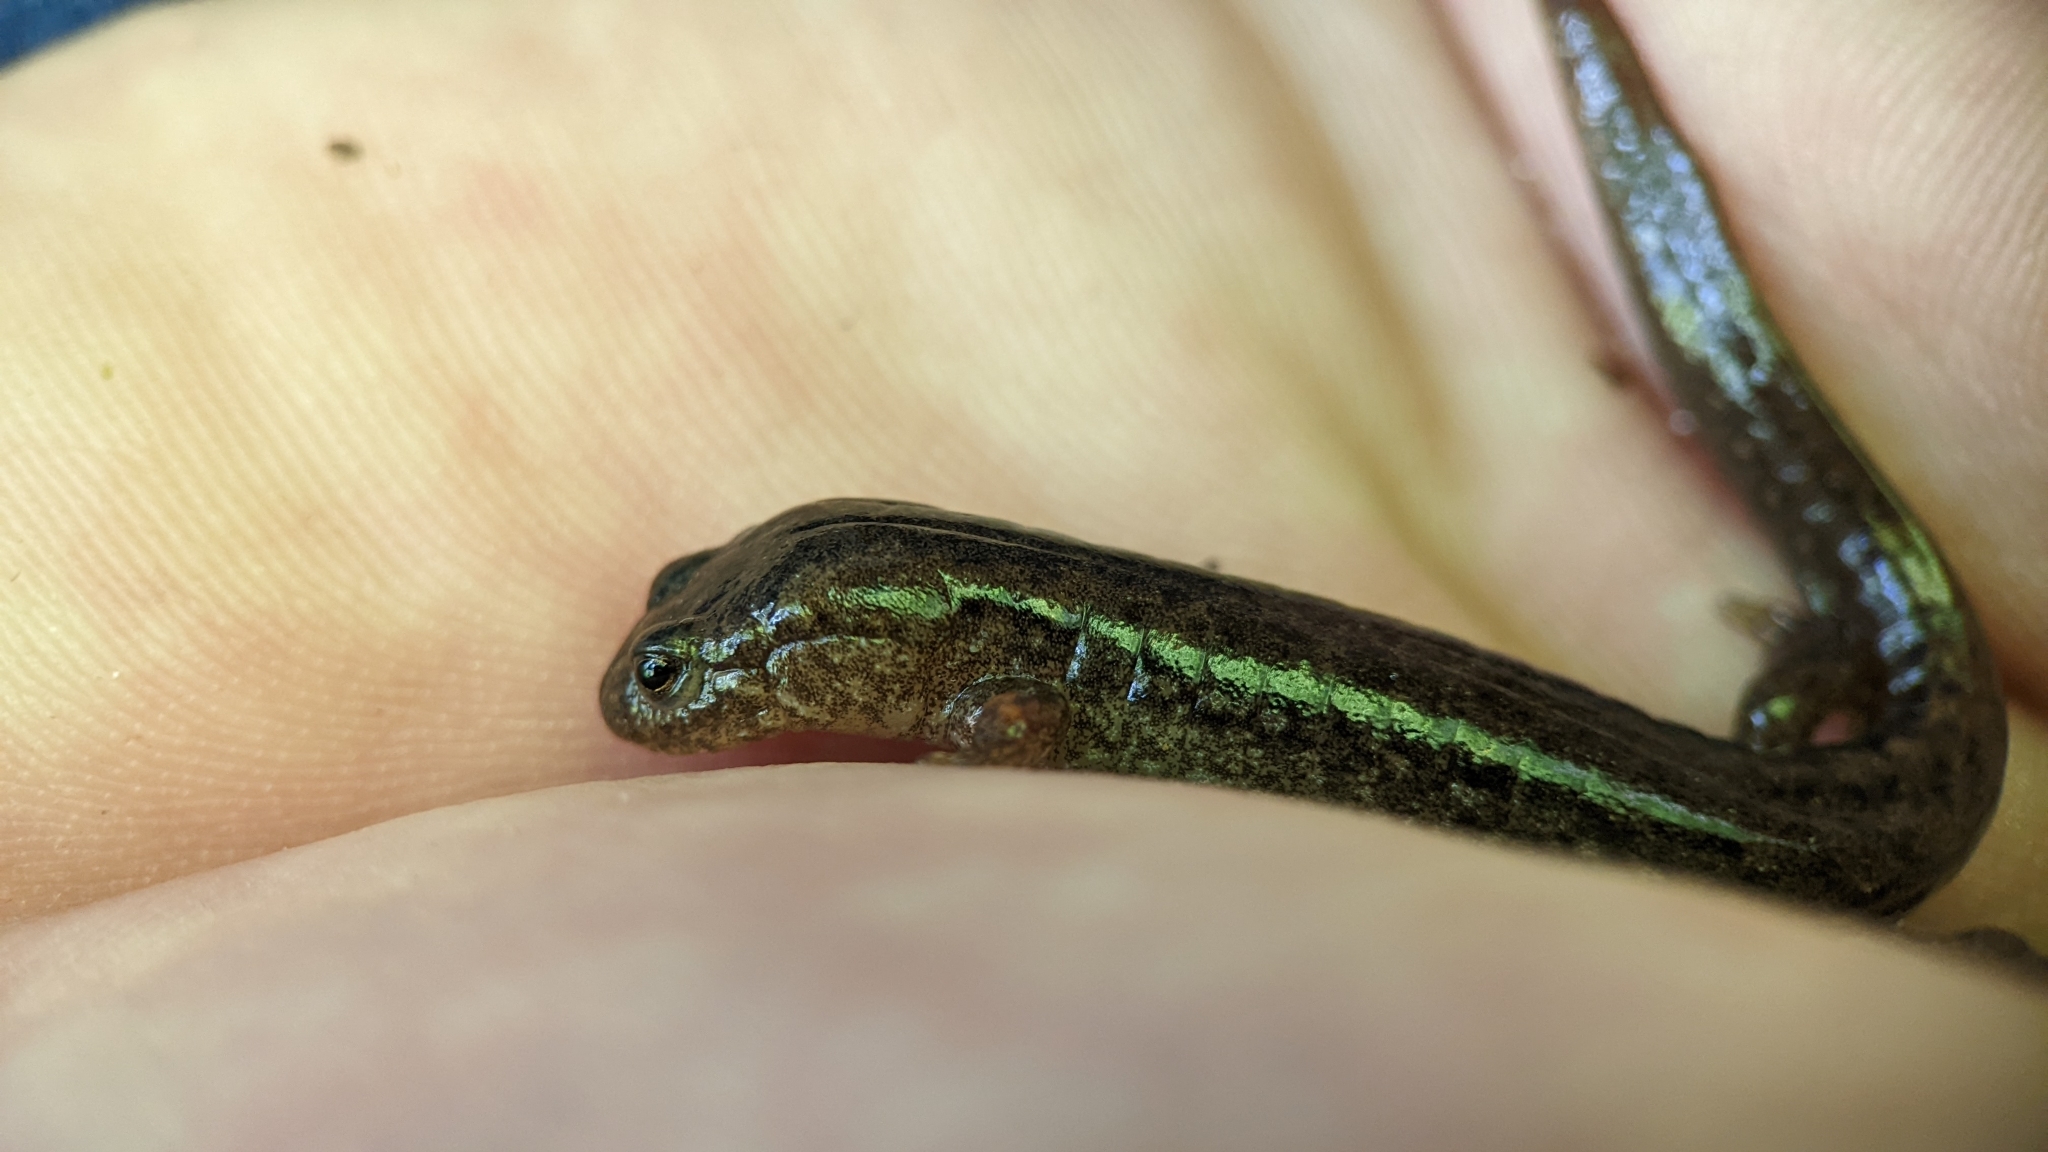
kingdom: Animalia
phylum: Chordata
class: Amphibia
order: Caudata
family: Plethodontidae
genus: Desmognathus
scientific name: Desmognathus brimleyorum
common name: Ouachita dusky salamander
